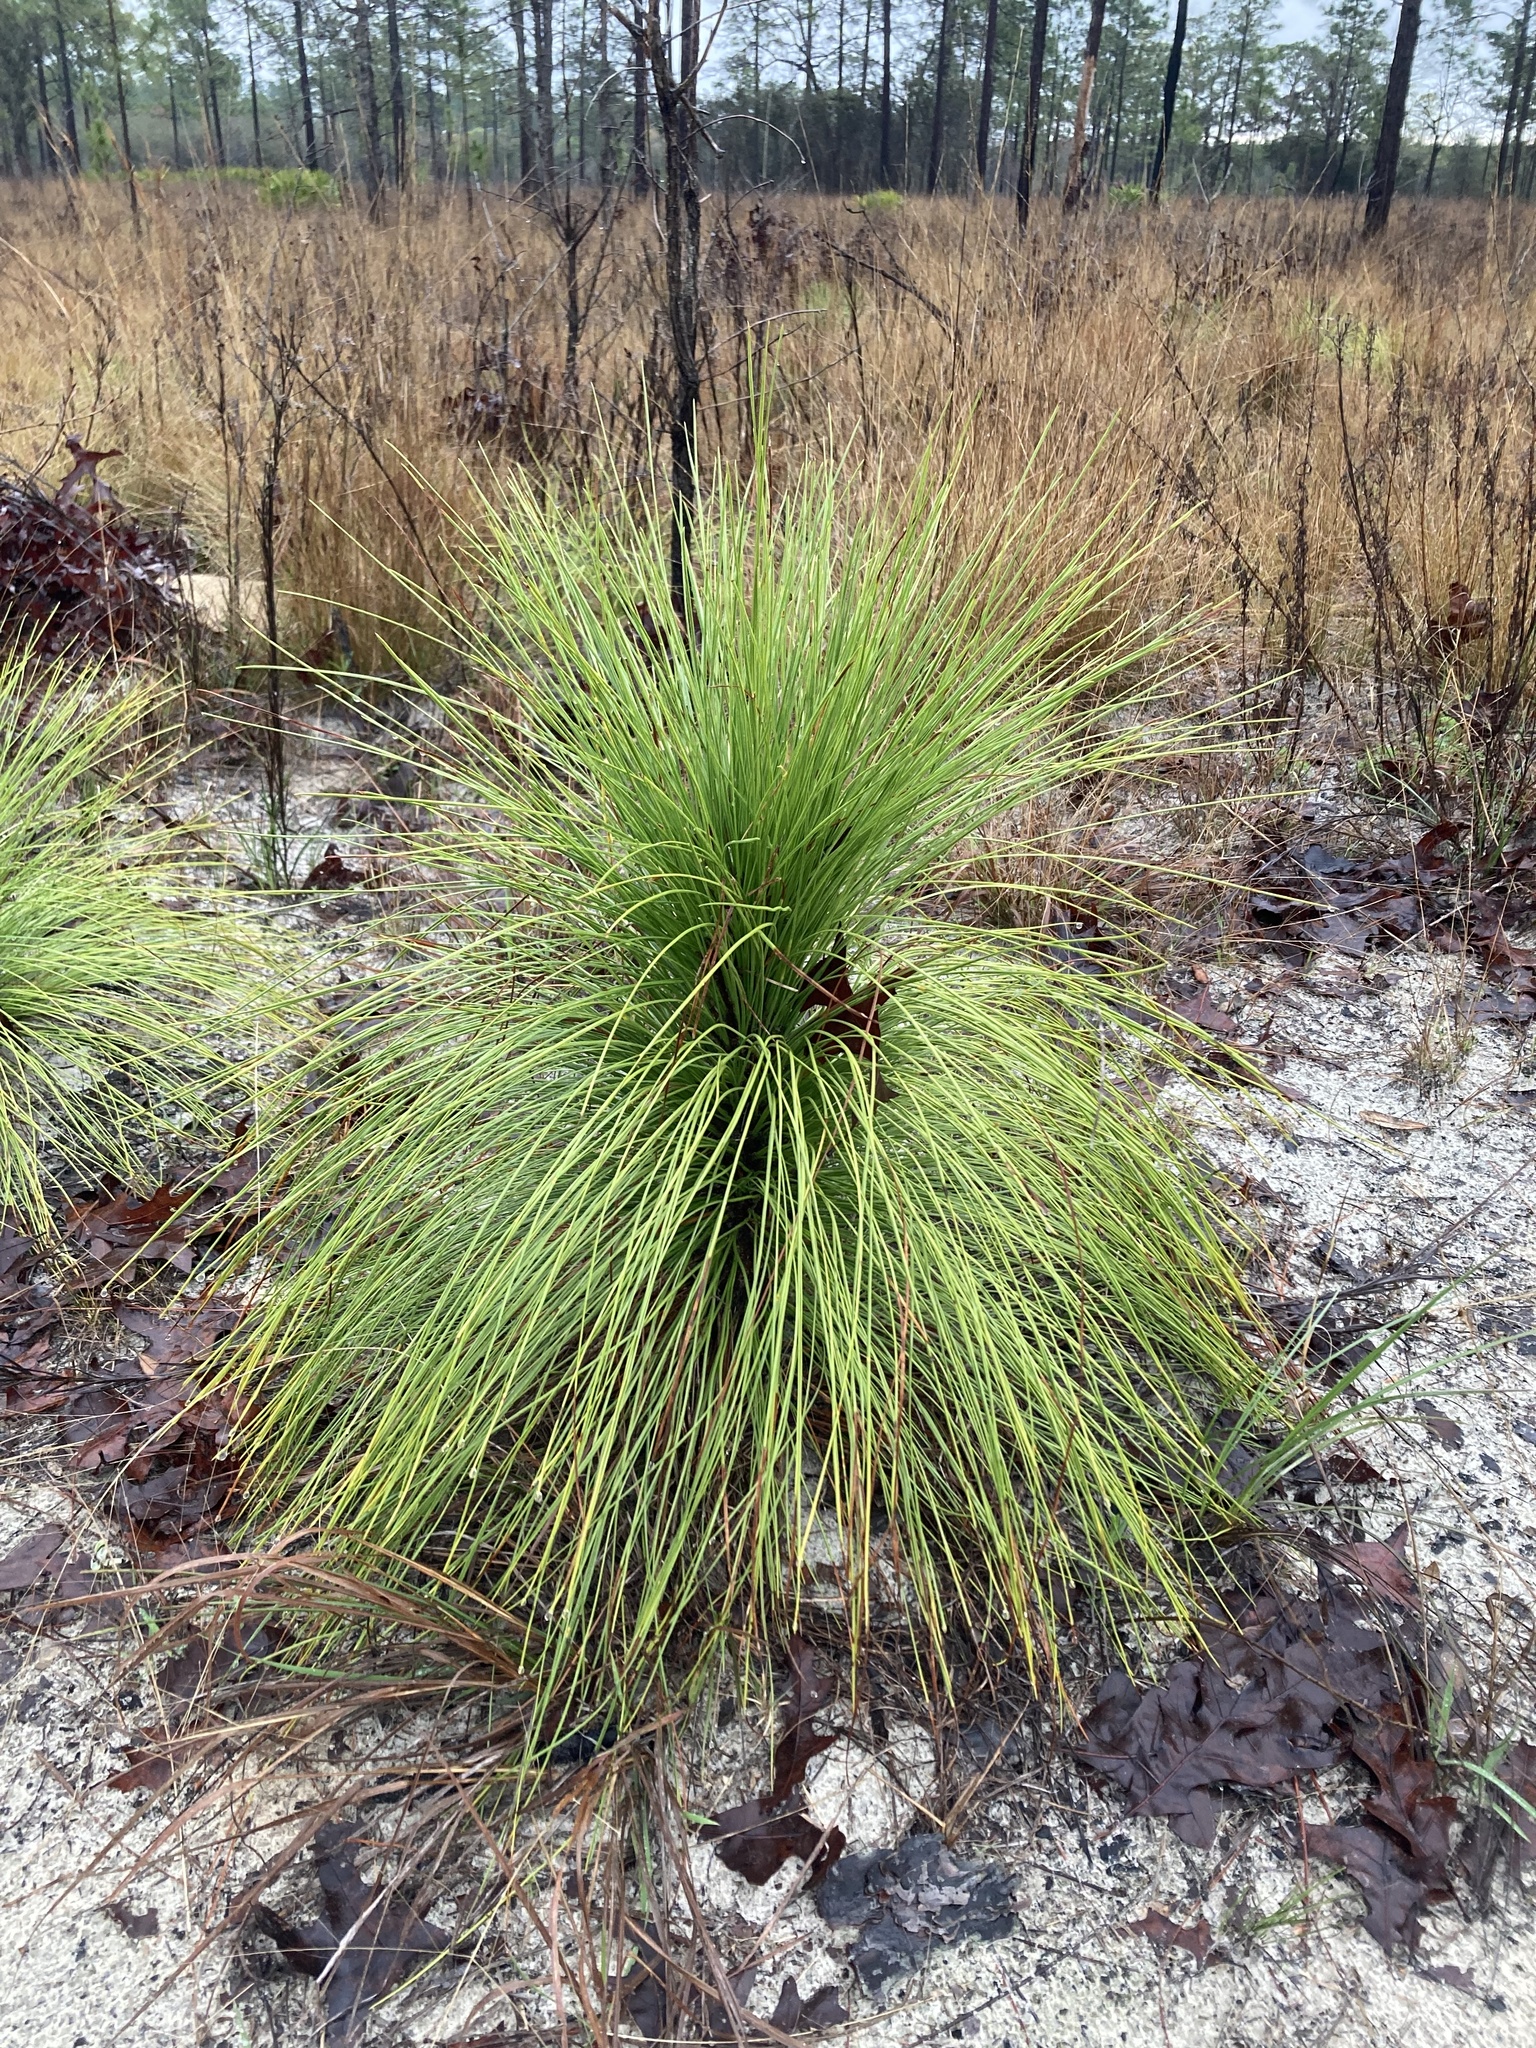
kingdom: Plantae
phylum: Tracheophyta
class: Pinopsida
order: Pinales
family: Pinaceae
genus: Pinus
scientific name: Pinus palustris
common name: Longleaf pine
